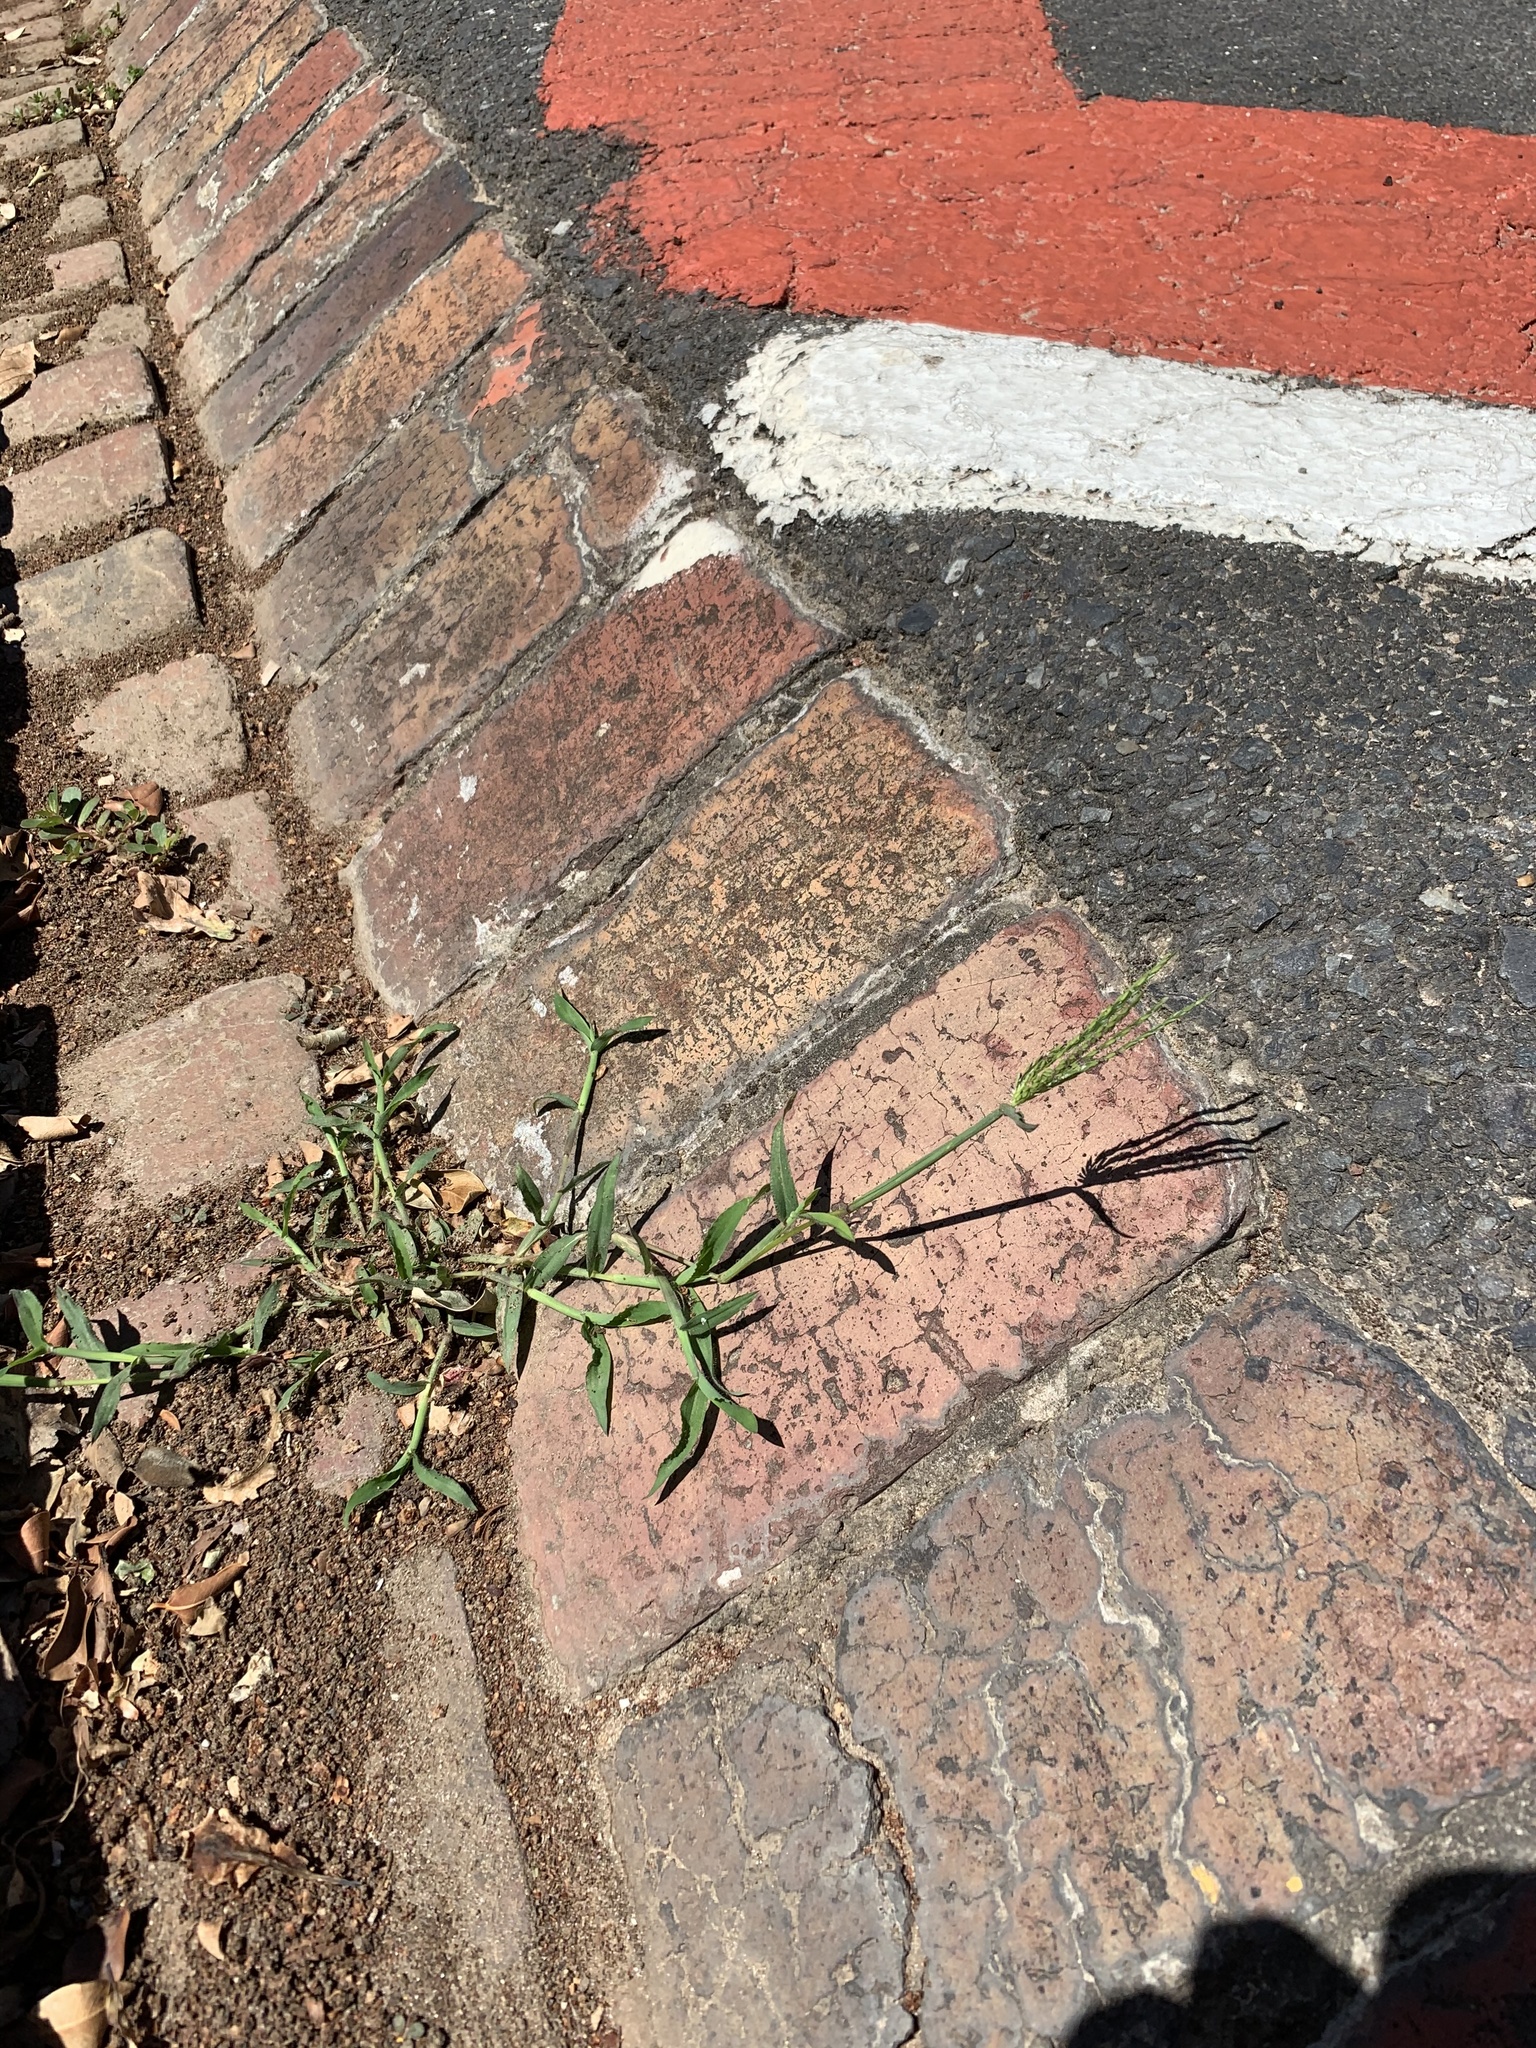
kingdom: Plantae
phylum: Tracheophyta
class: Liliopsida
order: Poales
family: Poaceae
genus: Digitaria
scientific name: Digitaria sanguinalis
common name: Hairy crabgrass
